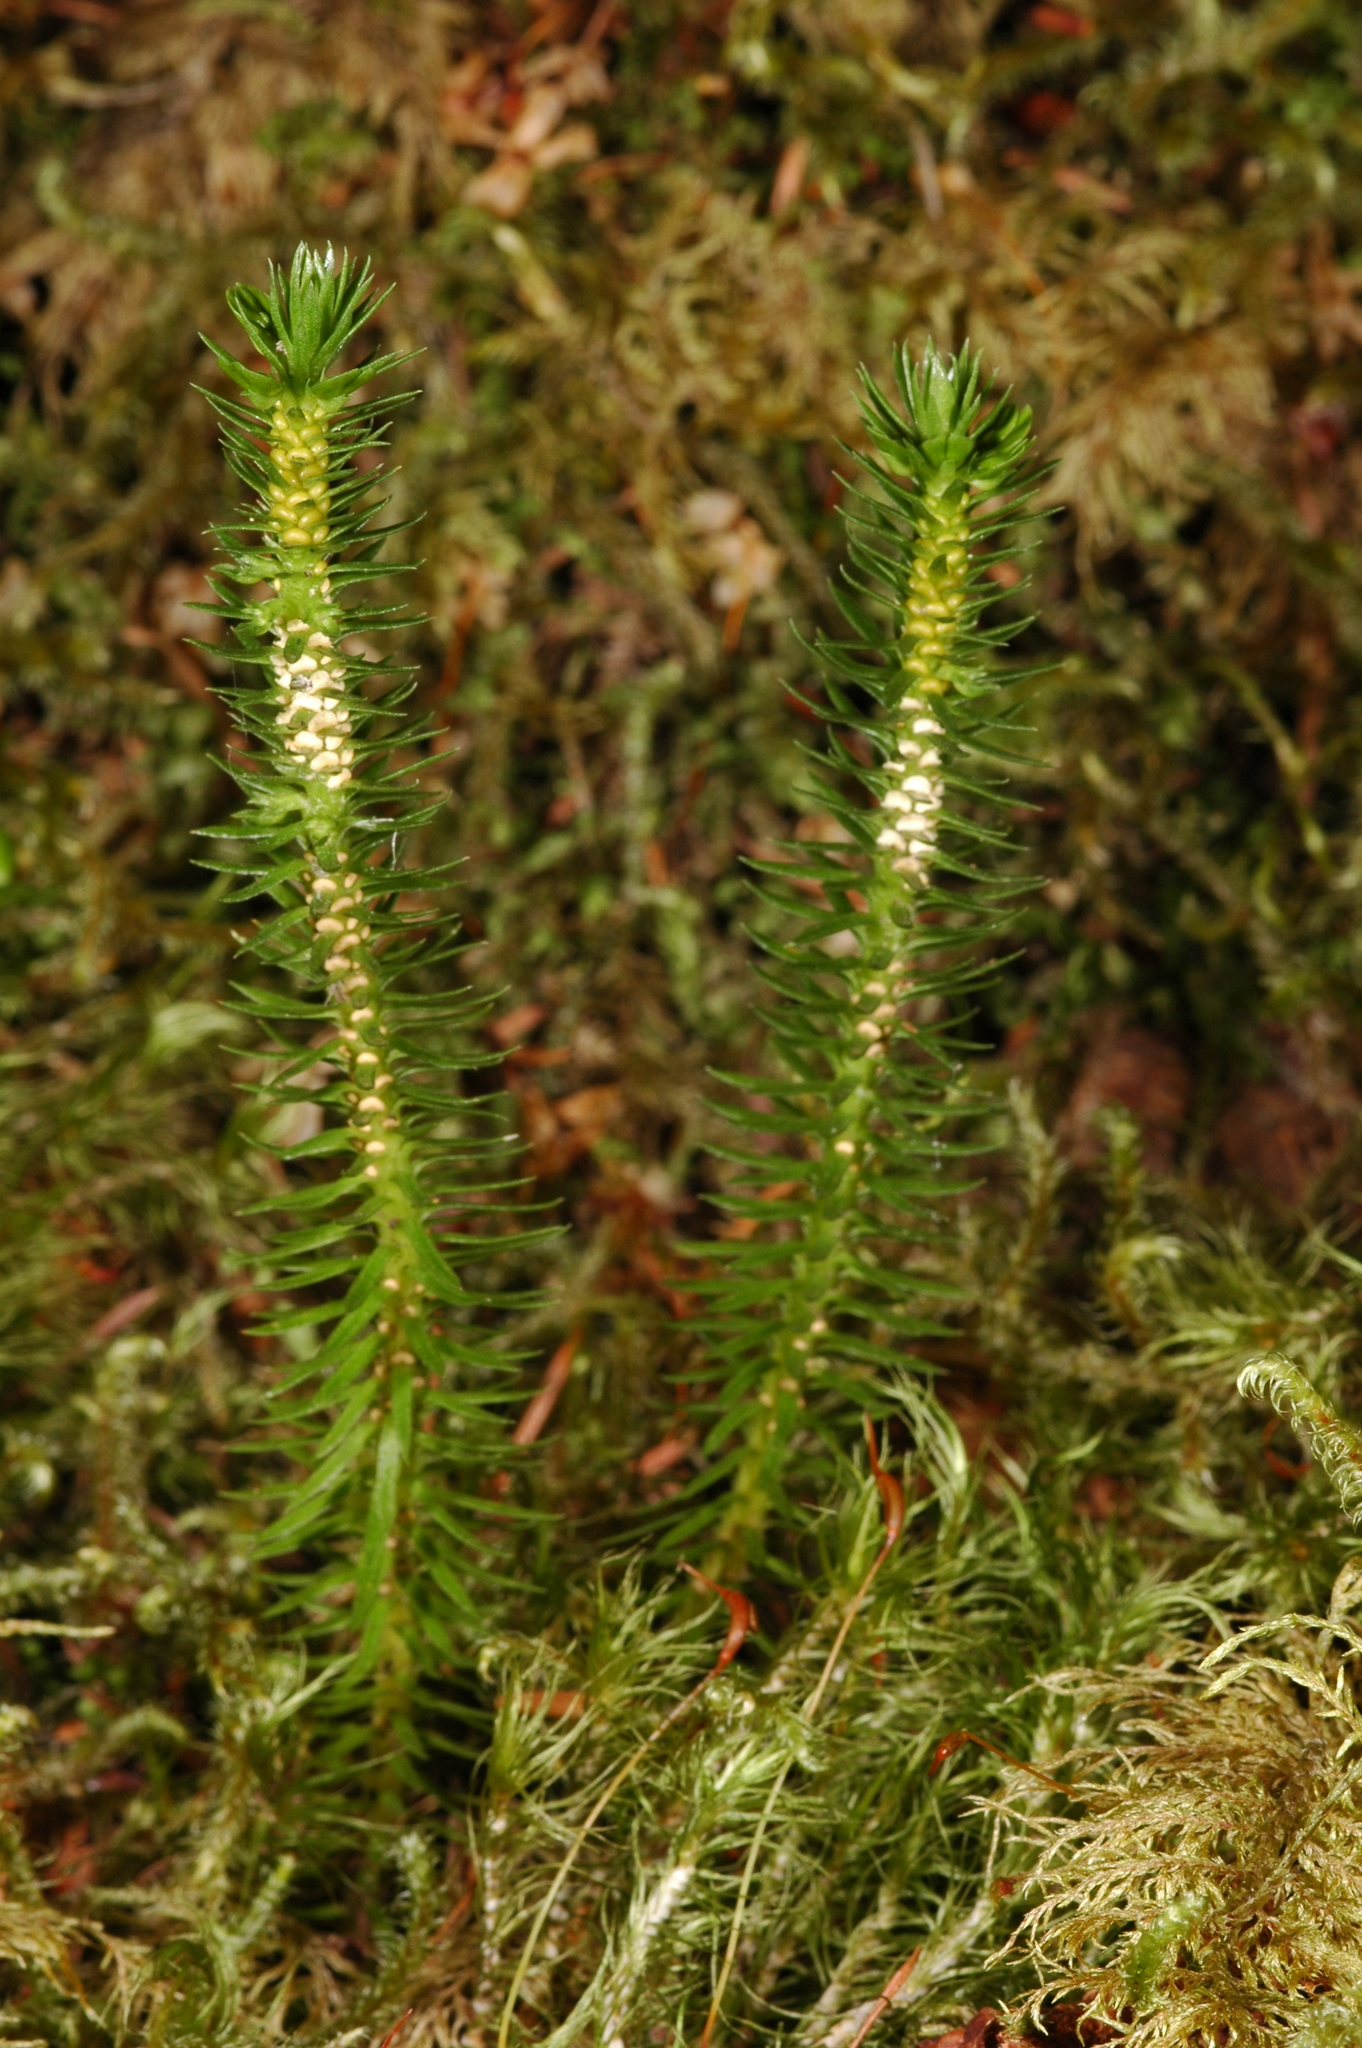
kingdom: Plantae
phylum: Tracheophyta
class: Lycopodiopsida
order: Lycopodiales
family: Lycopodiaceae
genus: Huperzia
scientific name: Huperzia occidentalis
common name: Western clubmoss
